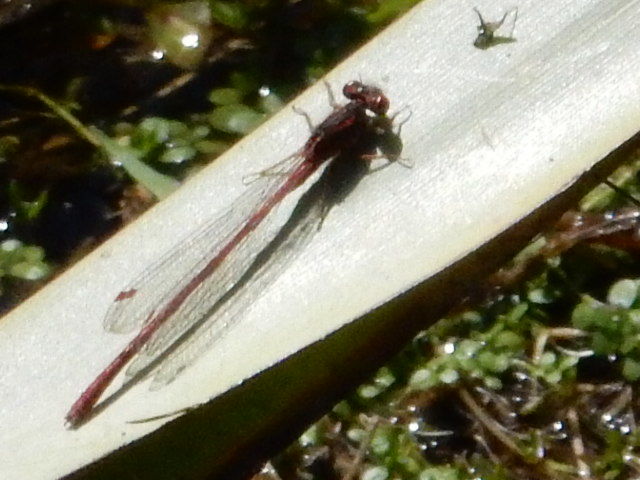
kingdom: Animalia
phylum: Arthropoda
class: Insecta
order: Odonata
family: Coenagrionidae
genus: Xanthocnemis
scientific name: Xanthocnemis zealandica
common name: Common redcoat damselfly
